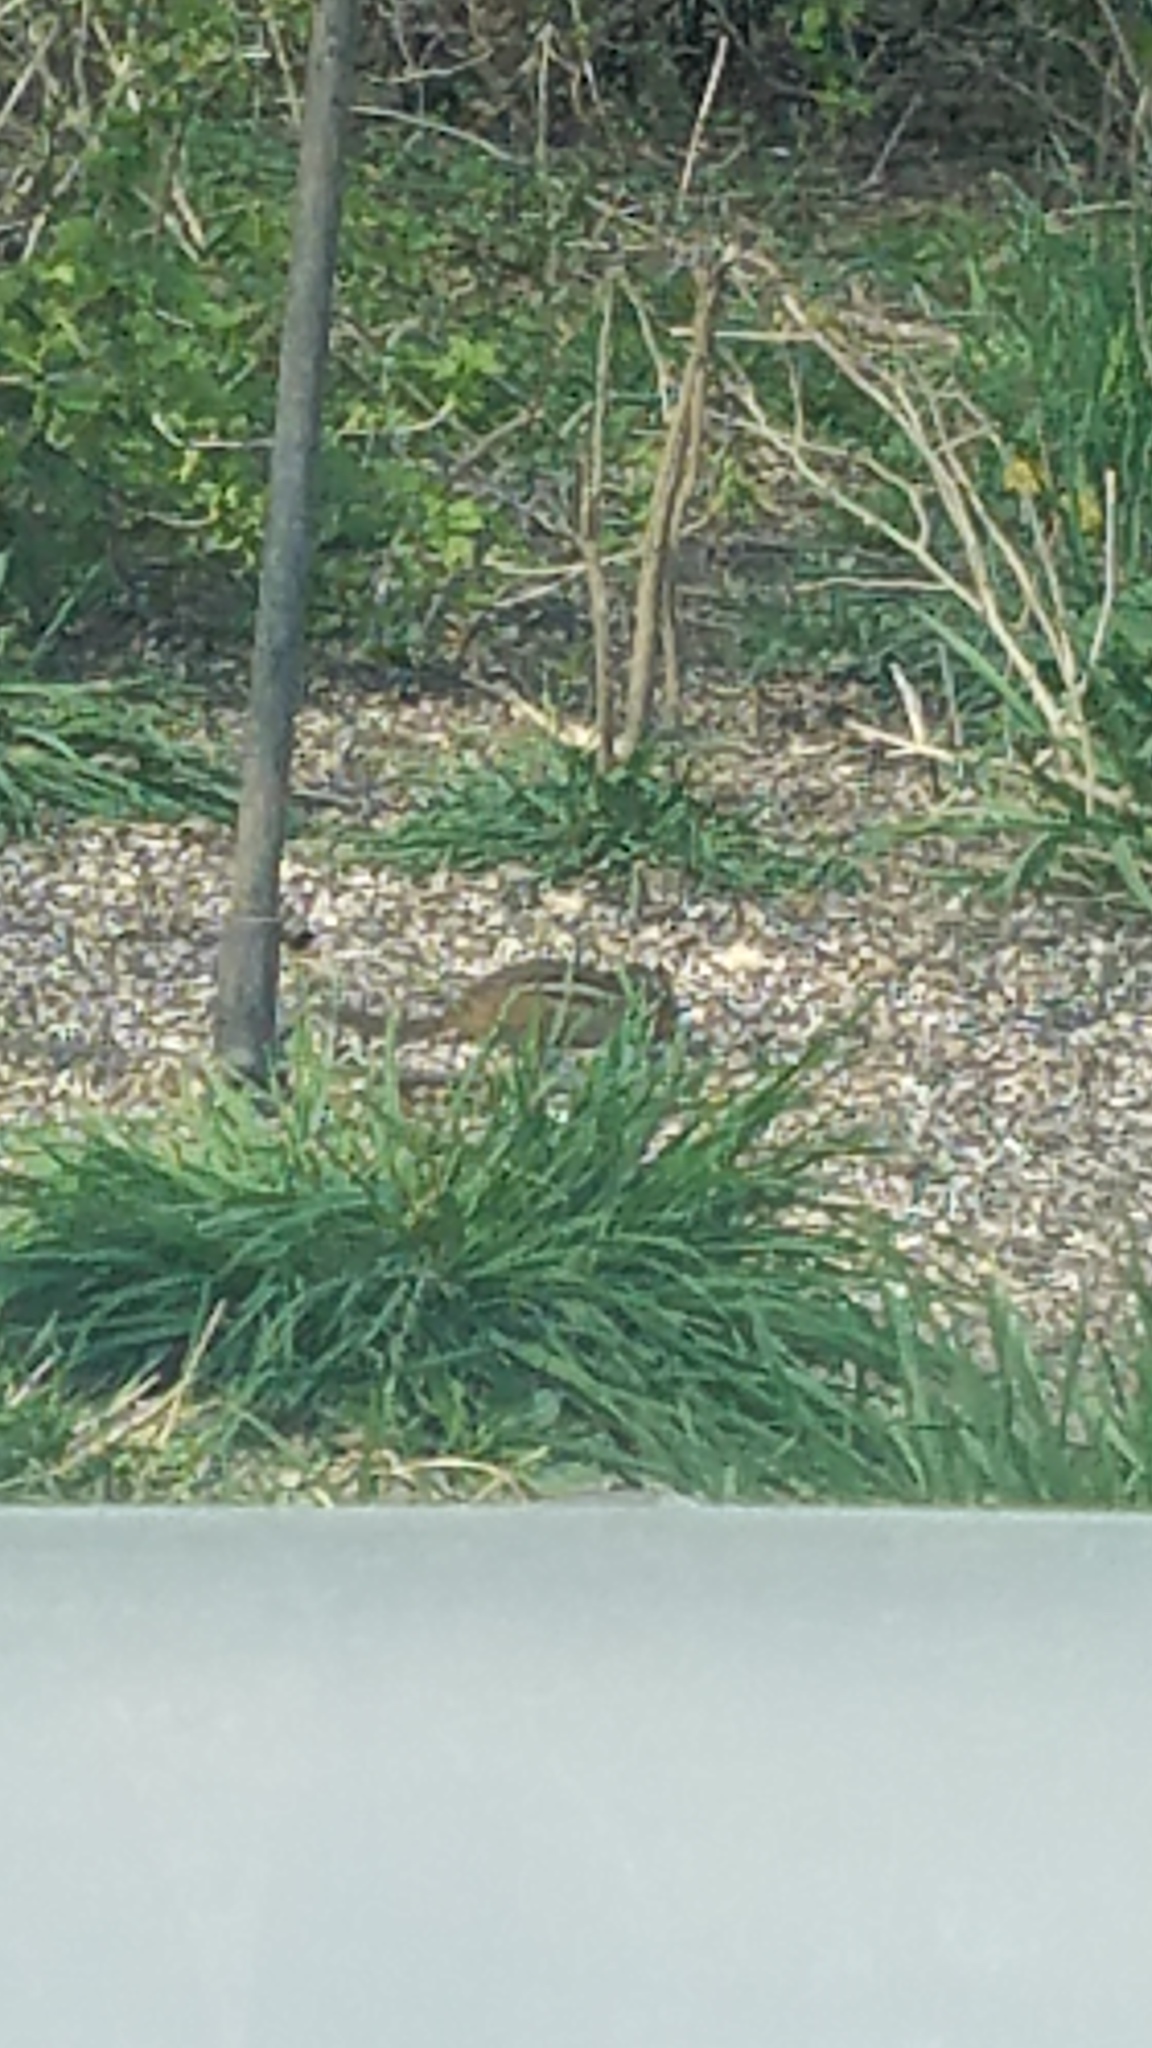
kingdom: Animalia
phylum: Chordata
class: Mammalia
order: Rodentia
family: Sciuridae
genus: Tamias
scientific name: Tamias striatus
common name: Eastern chipmunk
